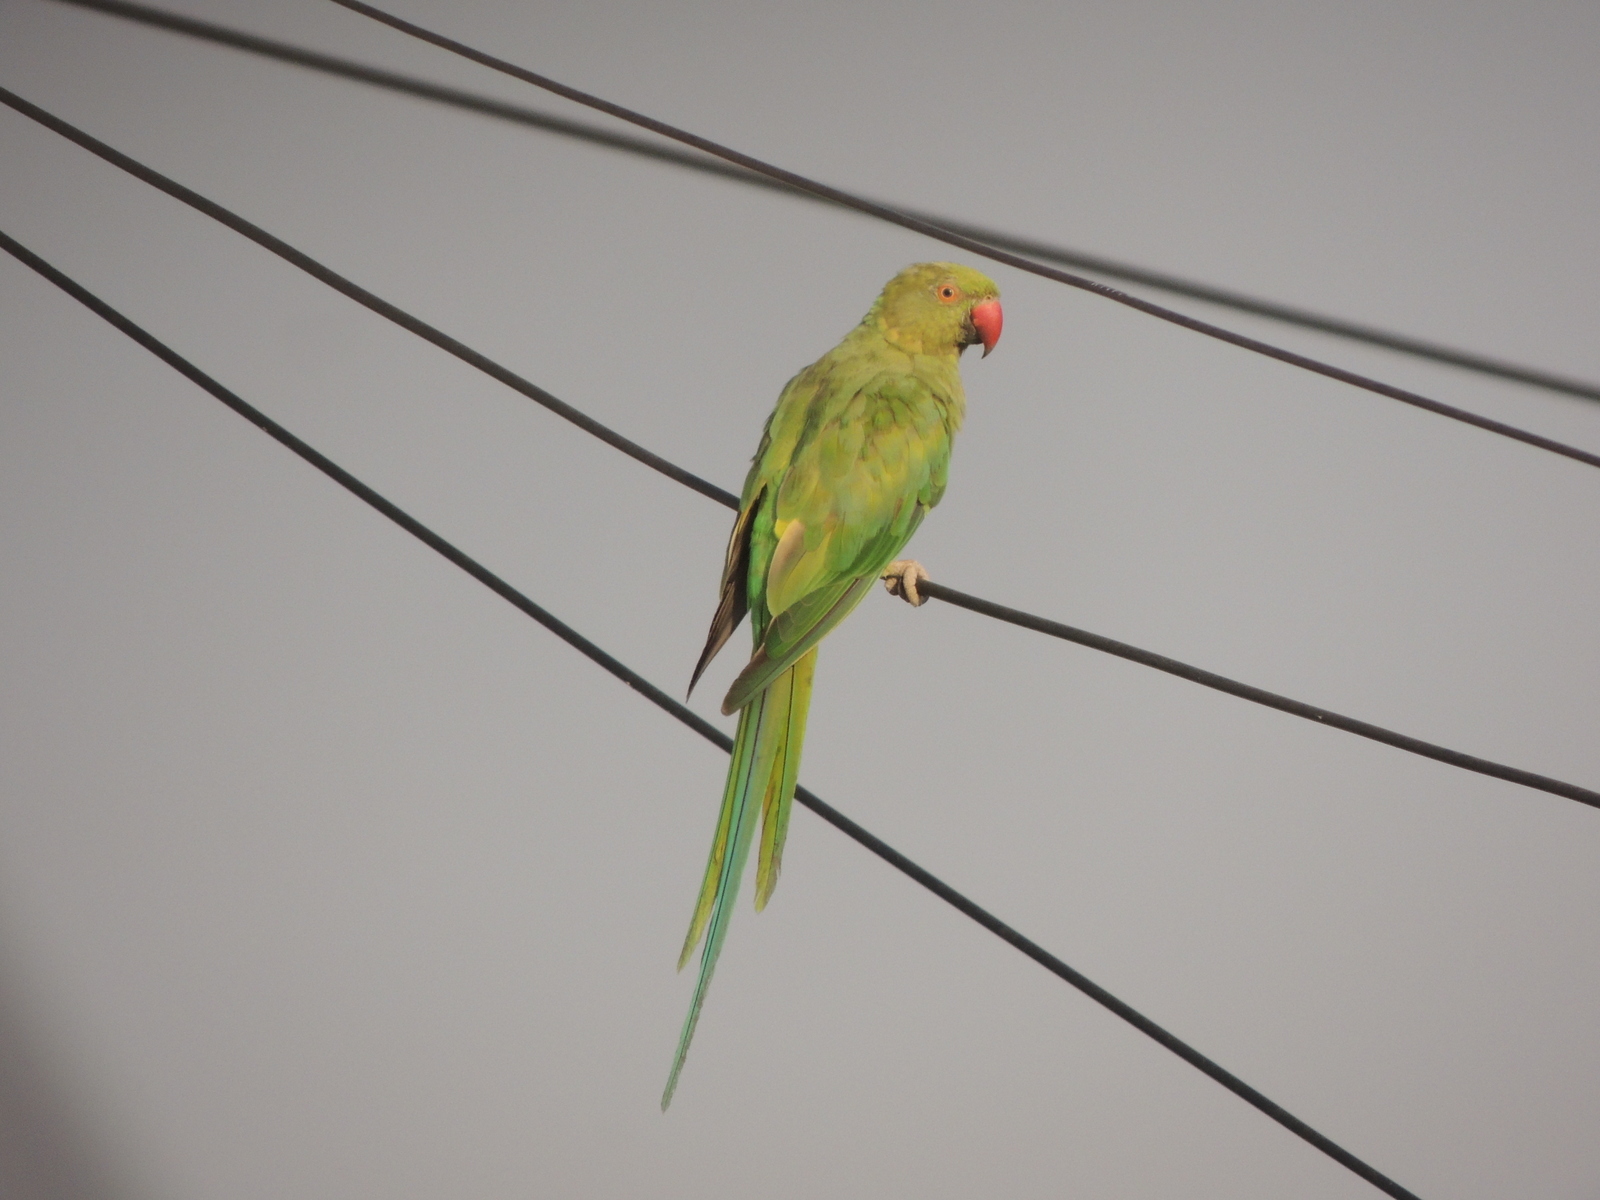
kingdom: Animalia
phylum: Chordata
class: Aves
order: Psittaciformes
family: Psittacidae
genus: Psittacula
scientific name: Psittacula krameri
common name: Rose-ringed parakeet
